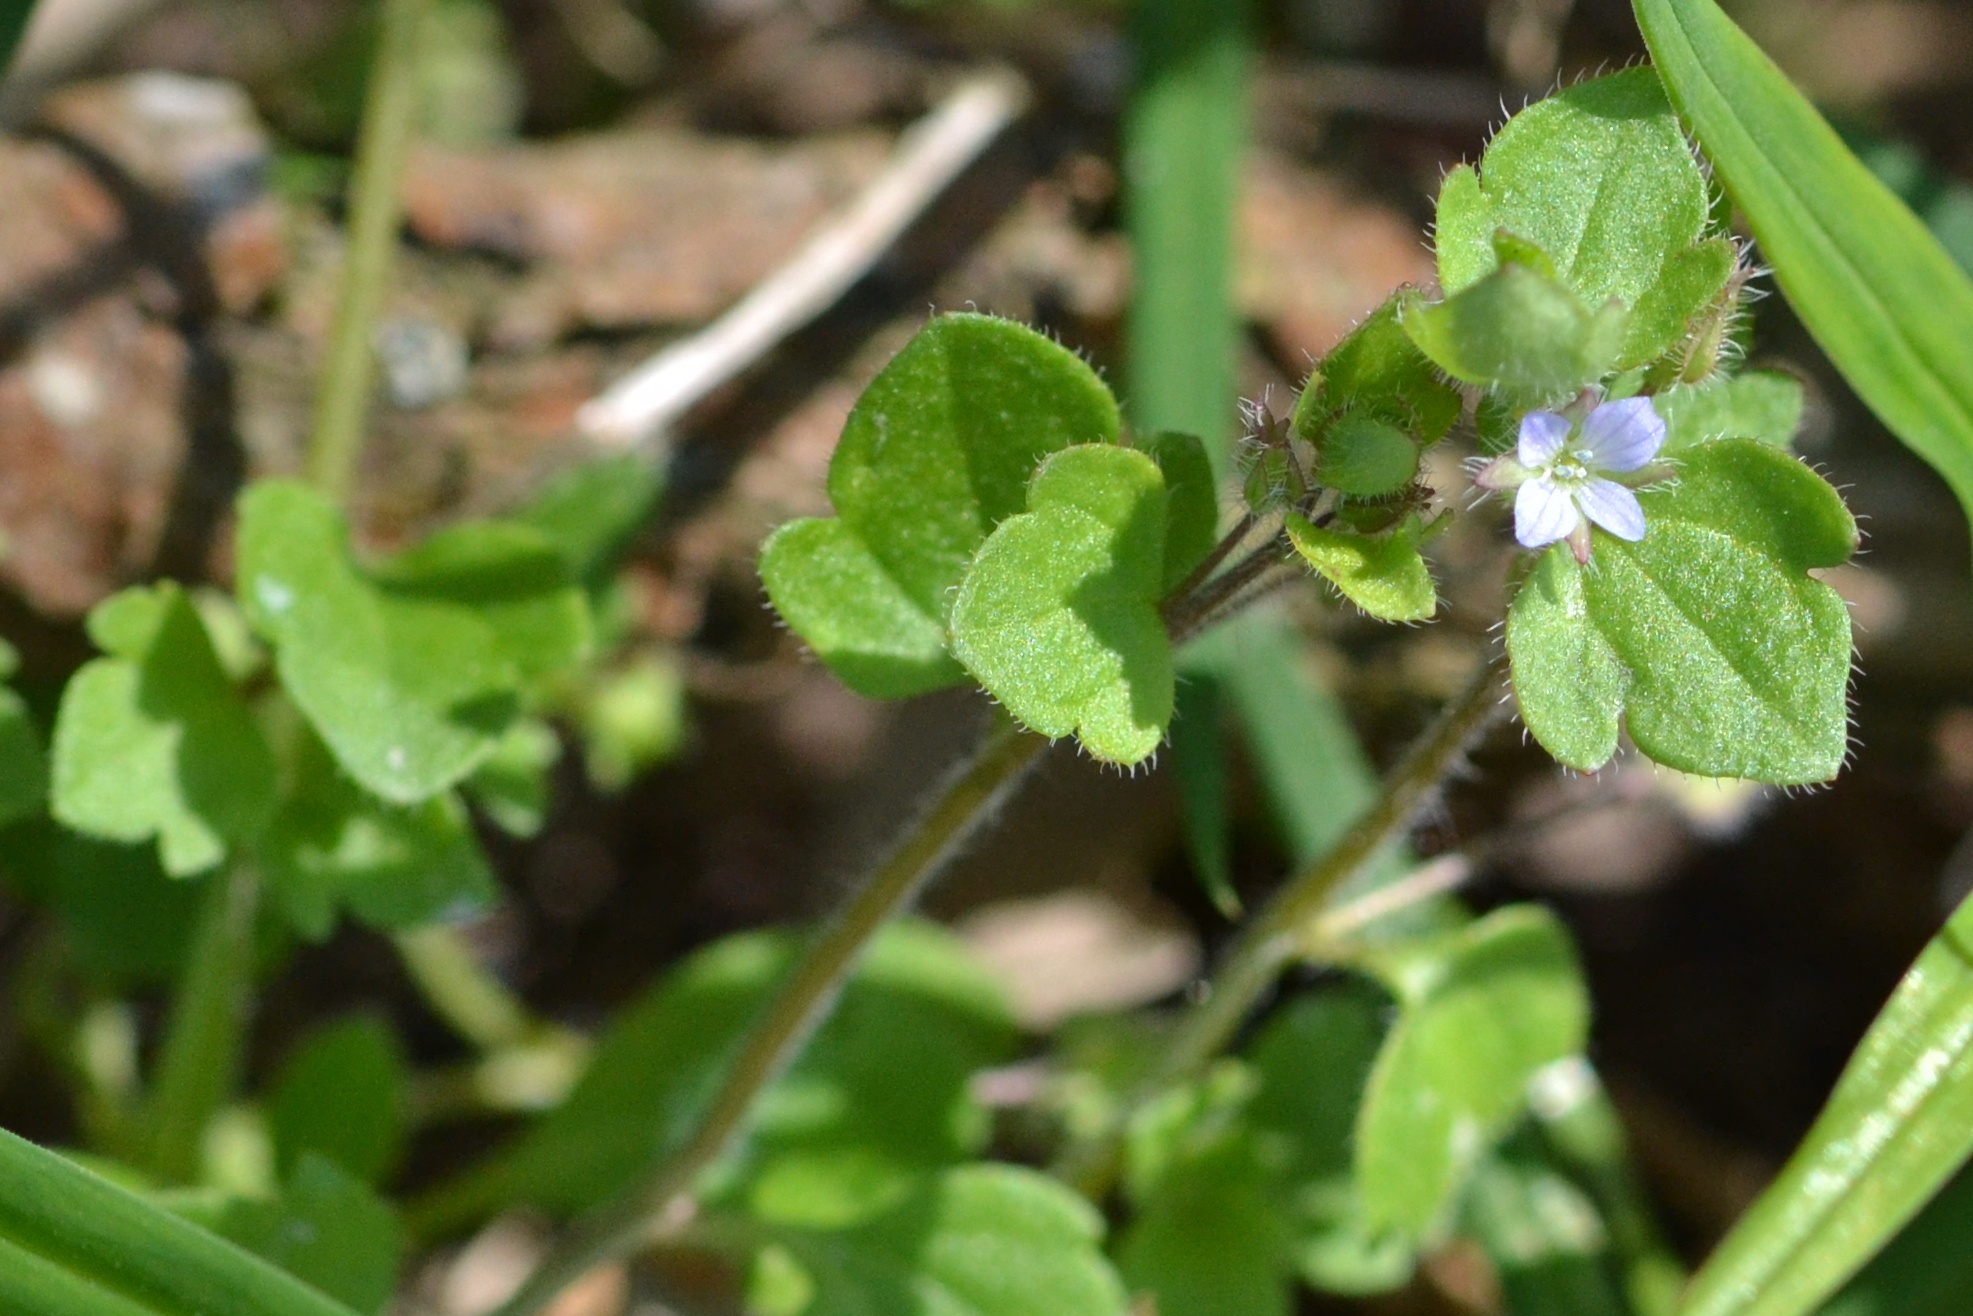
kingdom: Plantae
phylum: Tracheophyta
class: Magnoliopsida
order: Lamiales
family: Plantaginaceae
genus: Veronica
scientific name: Veronica sublobata
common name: False ivy-leaved speedwell
